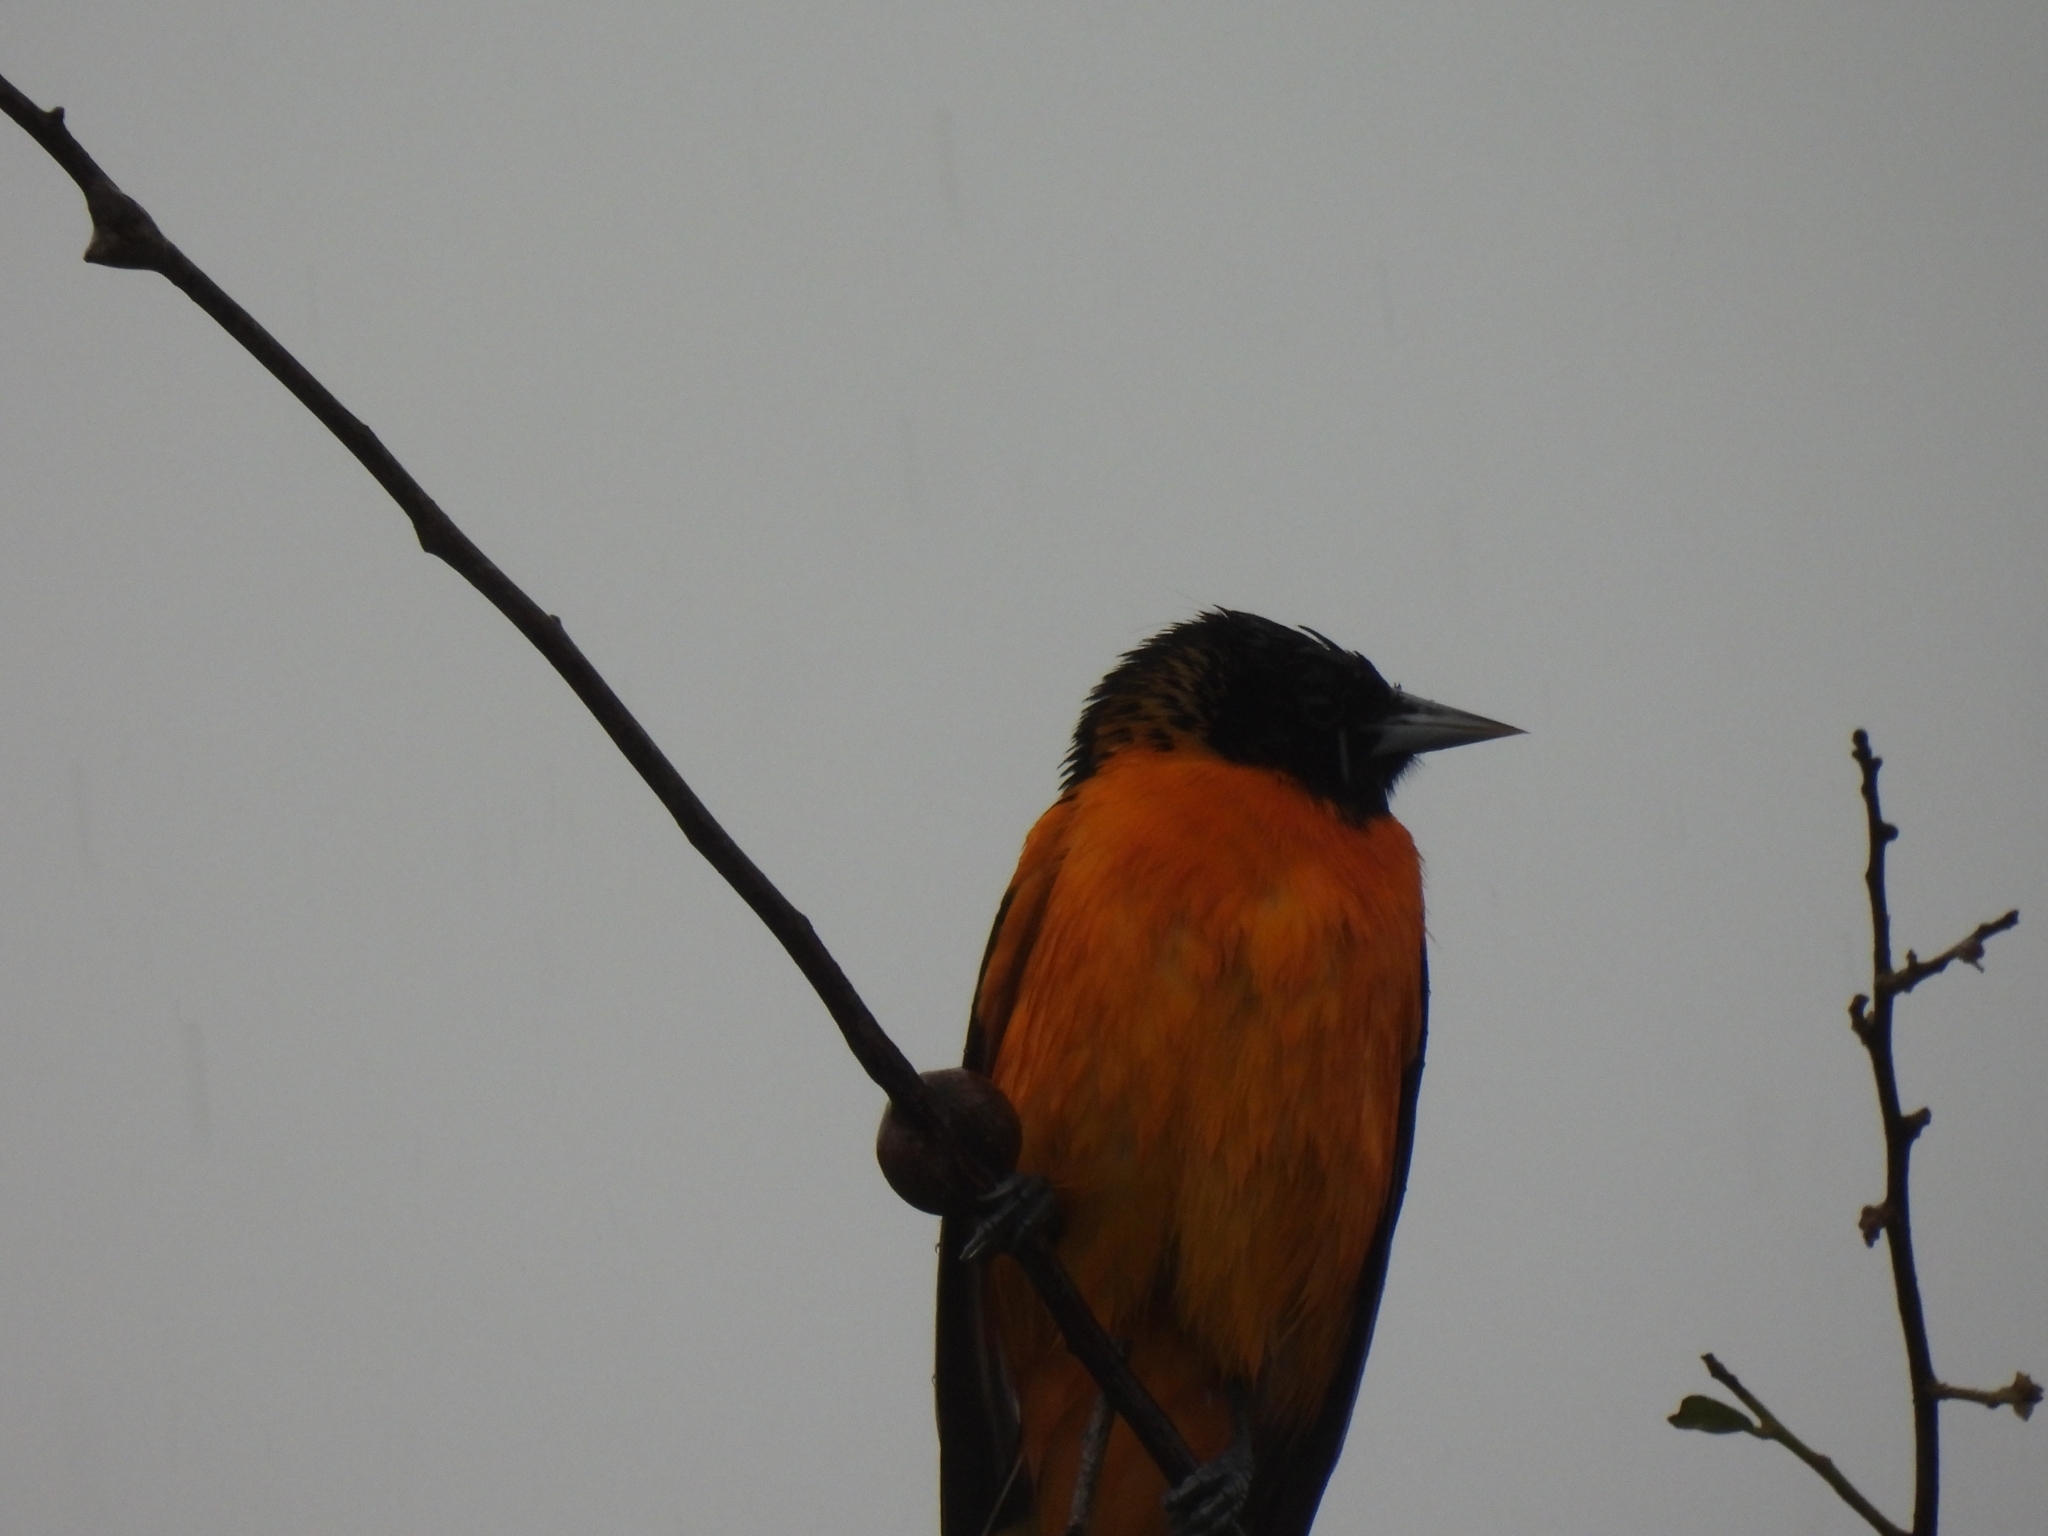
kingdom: Animalia
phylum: Chordata
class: Aves
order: Passeriformes
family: Icteridae
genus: Icterus
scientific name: Icterus galbula
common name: Baltimore oriole
